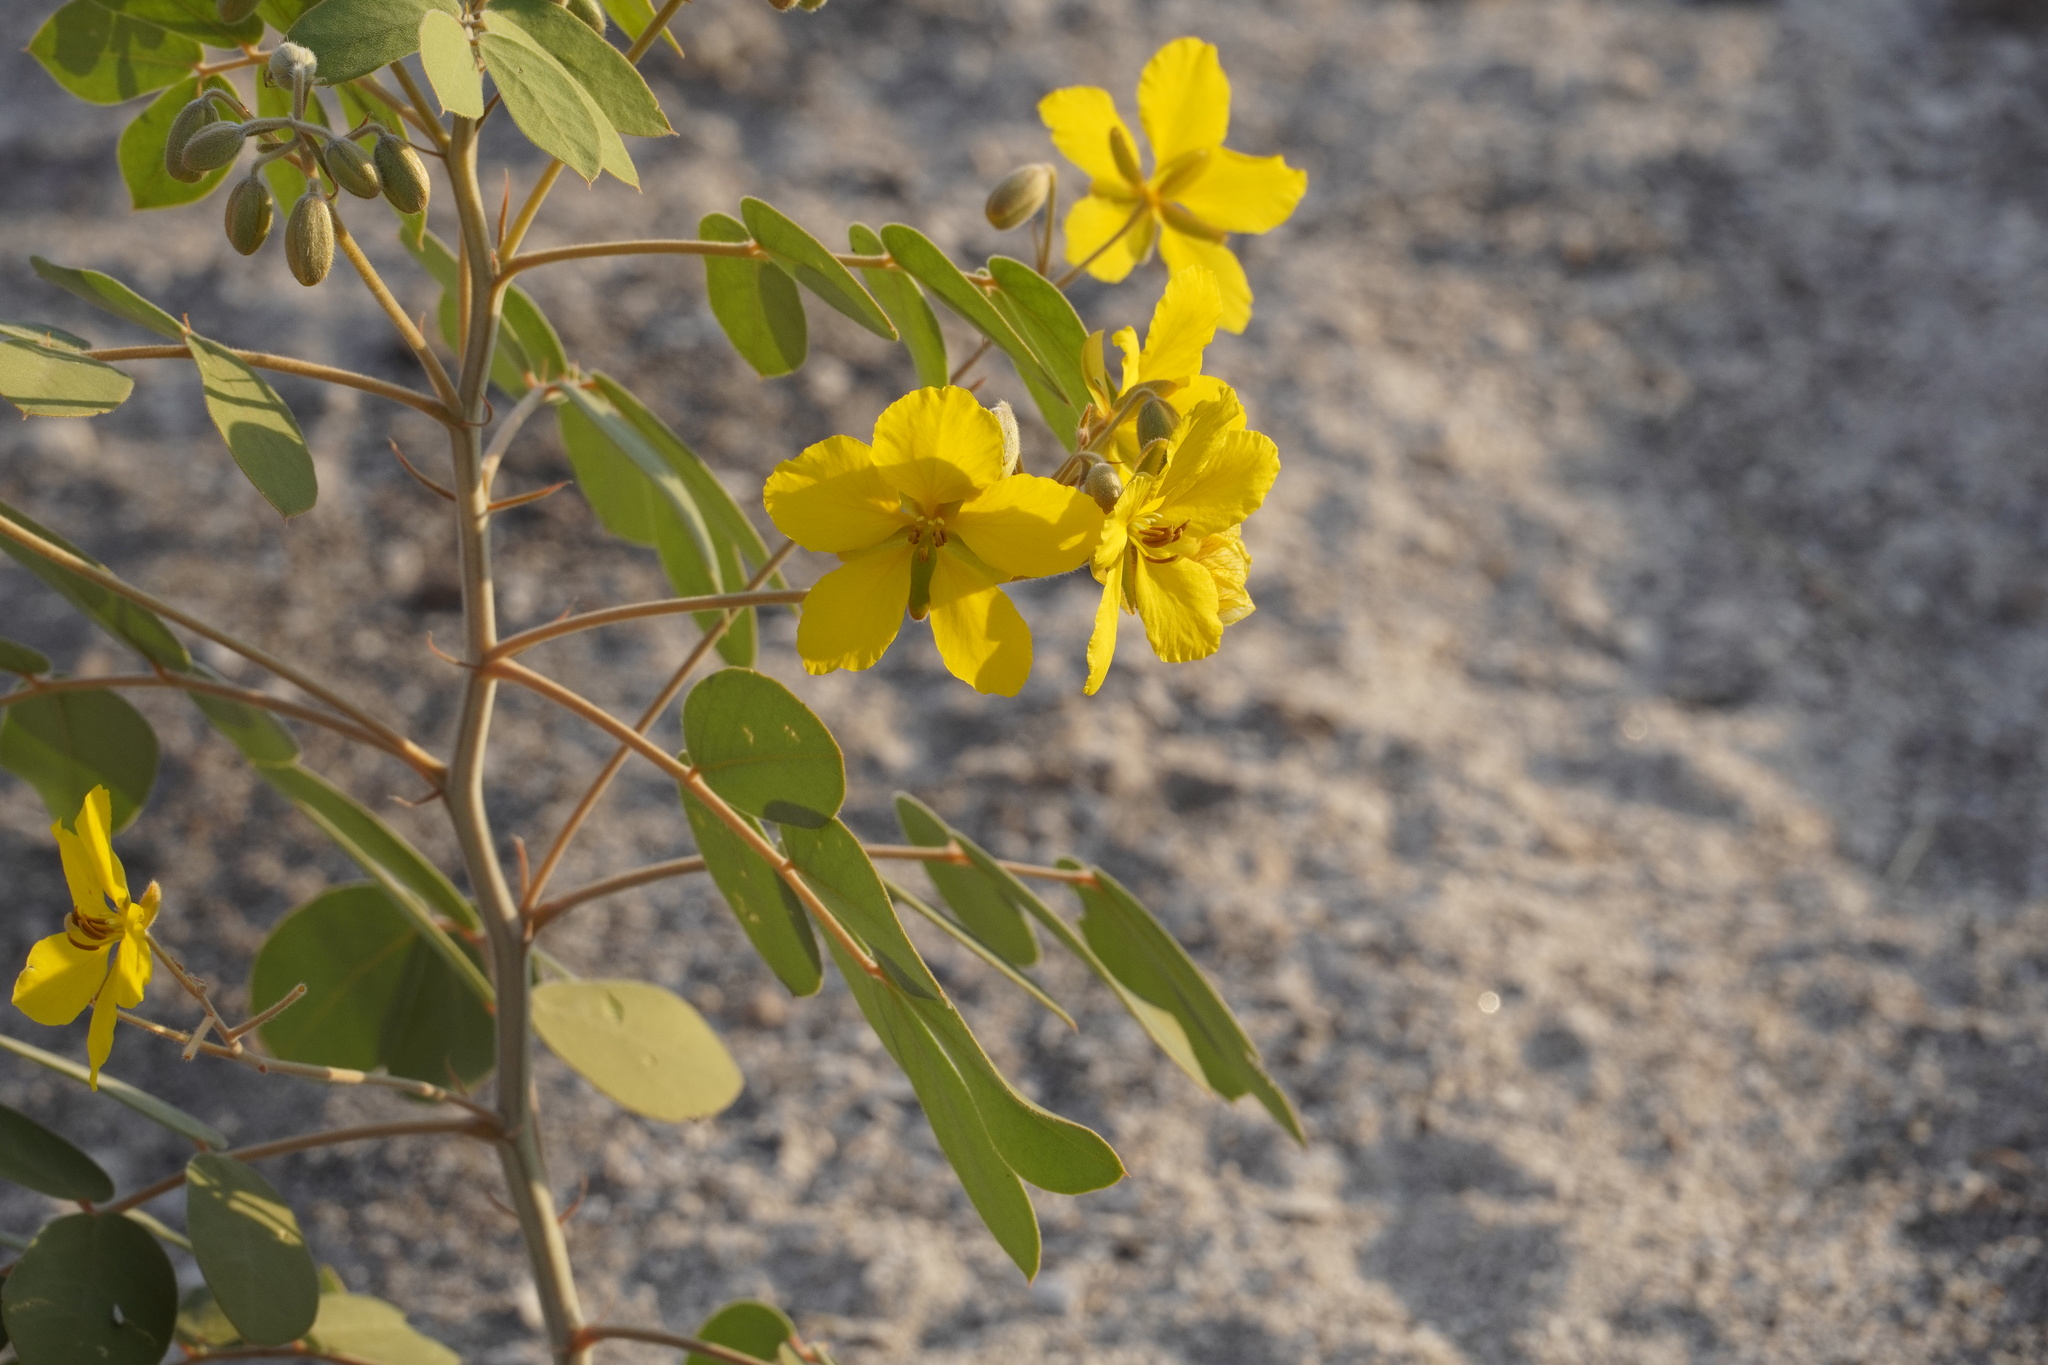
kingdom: Plantae
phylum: Tracheophyta
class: Magnoliopsida
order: Fabales
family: Fabaceae
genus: Senna
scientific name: Senna covesii
